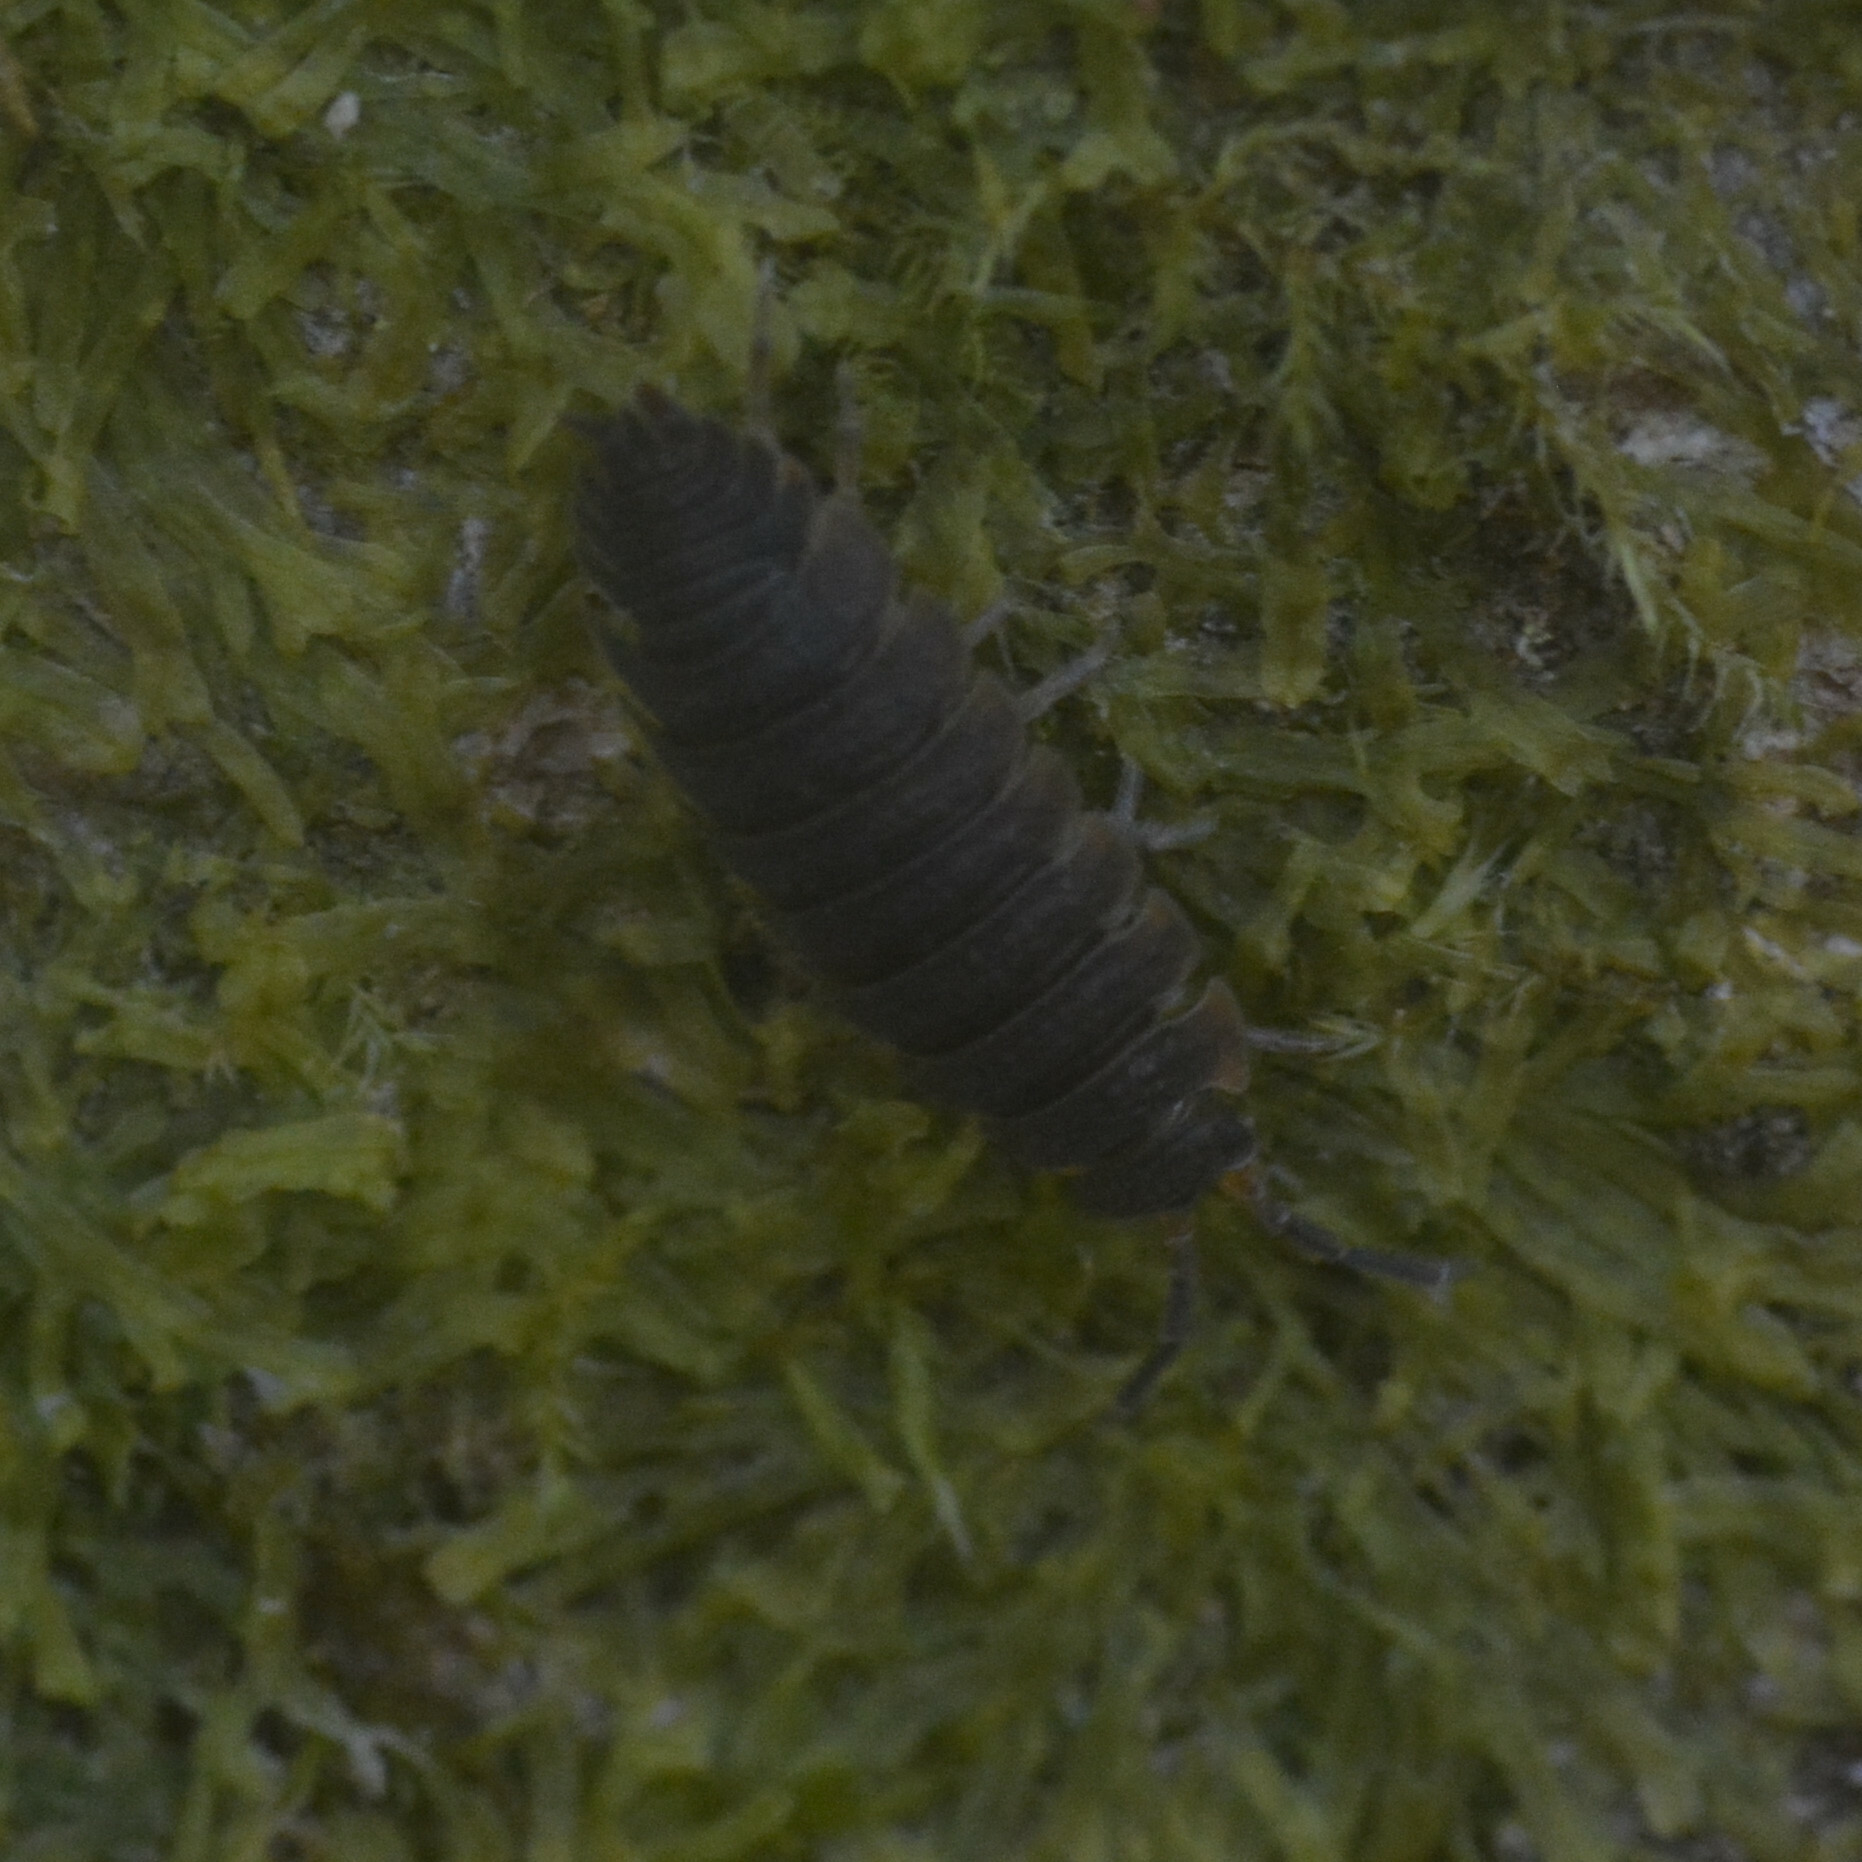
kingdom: Animalia
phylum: Arthropoda
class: Malacostraca
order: Isopoda
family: Porcellionidae
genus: Porcellio
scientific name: Porcellio scaber
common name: Common rough woodlouse
